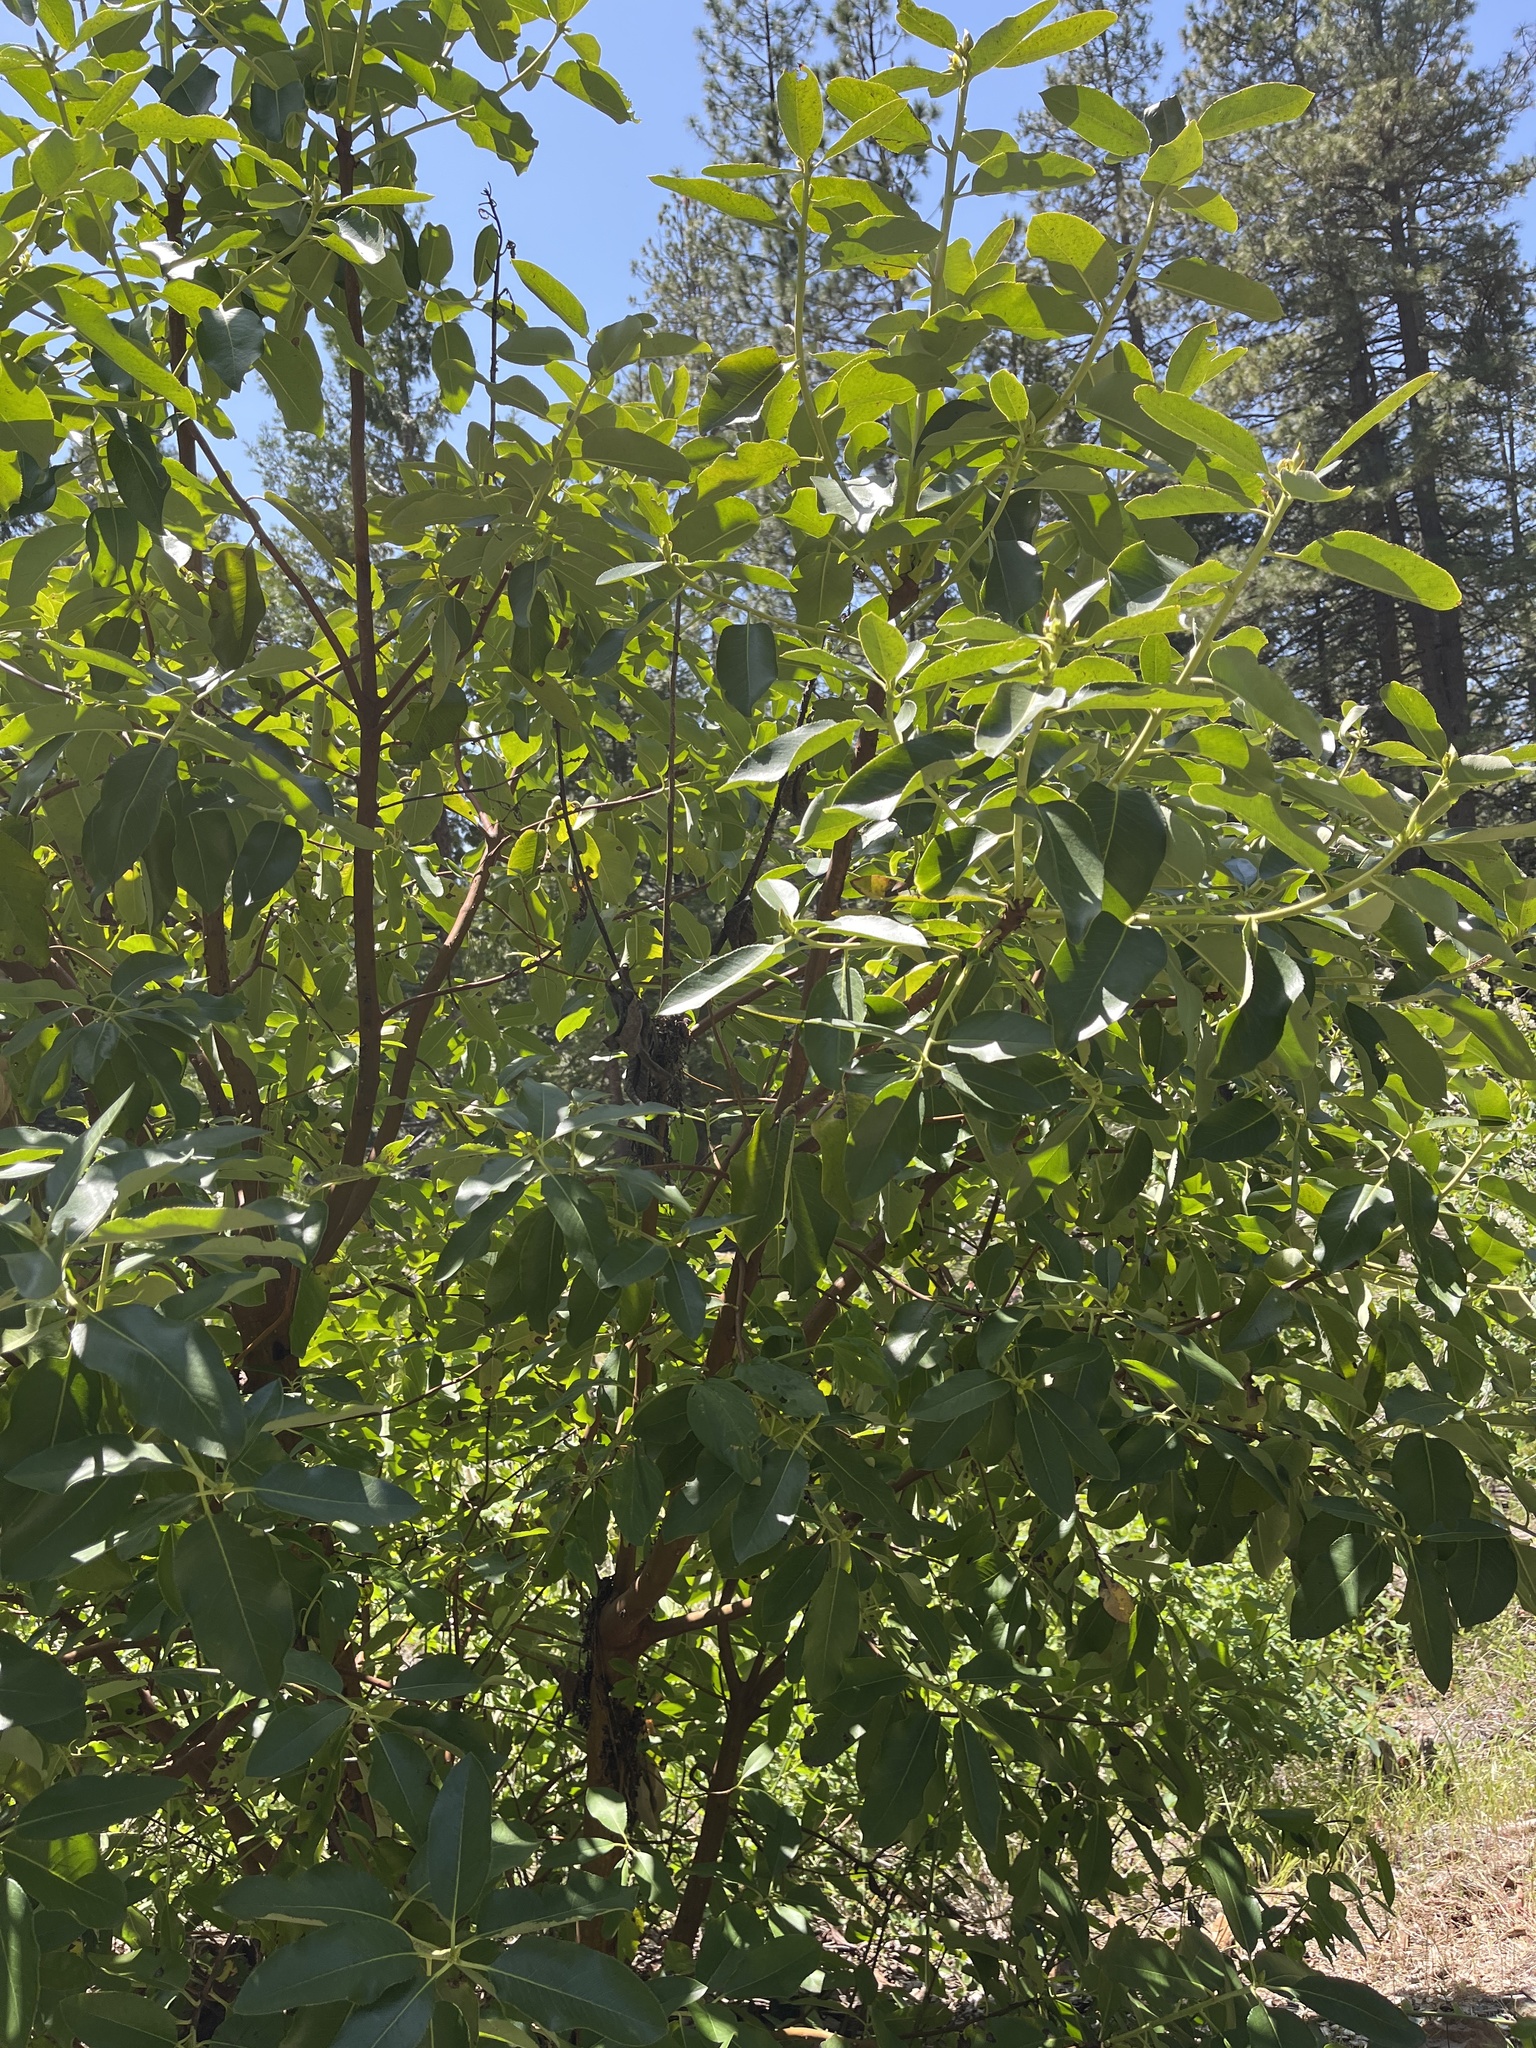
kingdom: Plantae
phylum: Tracheophyta
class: Magnoliopsida
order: Ericales
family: Ericaceae
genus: Arbutus
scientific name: Arbutus menziesii
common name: Pacific madrone
